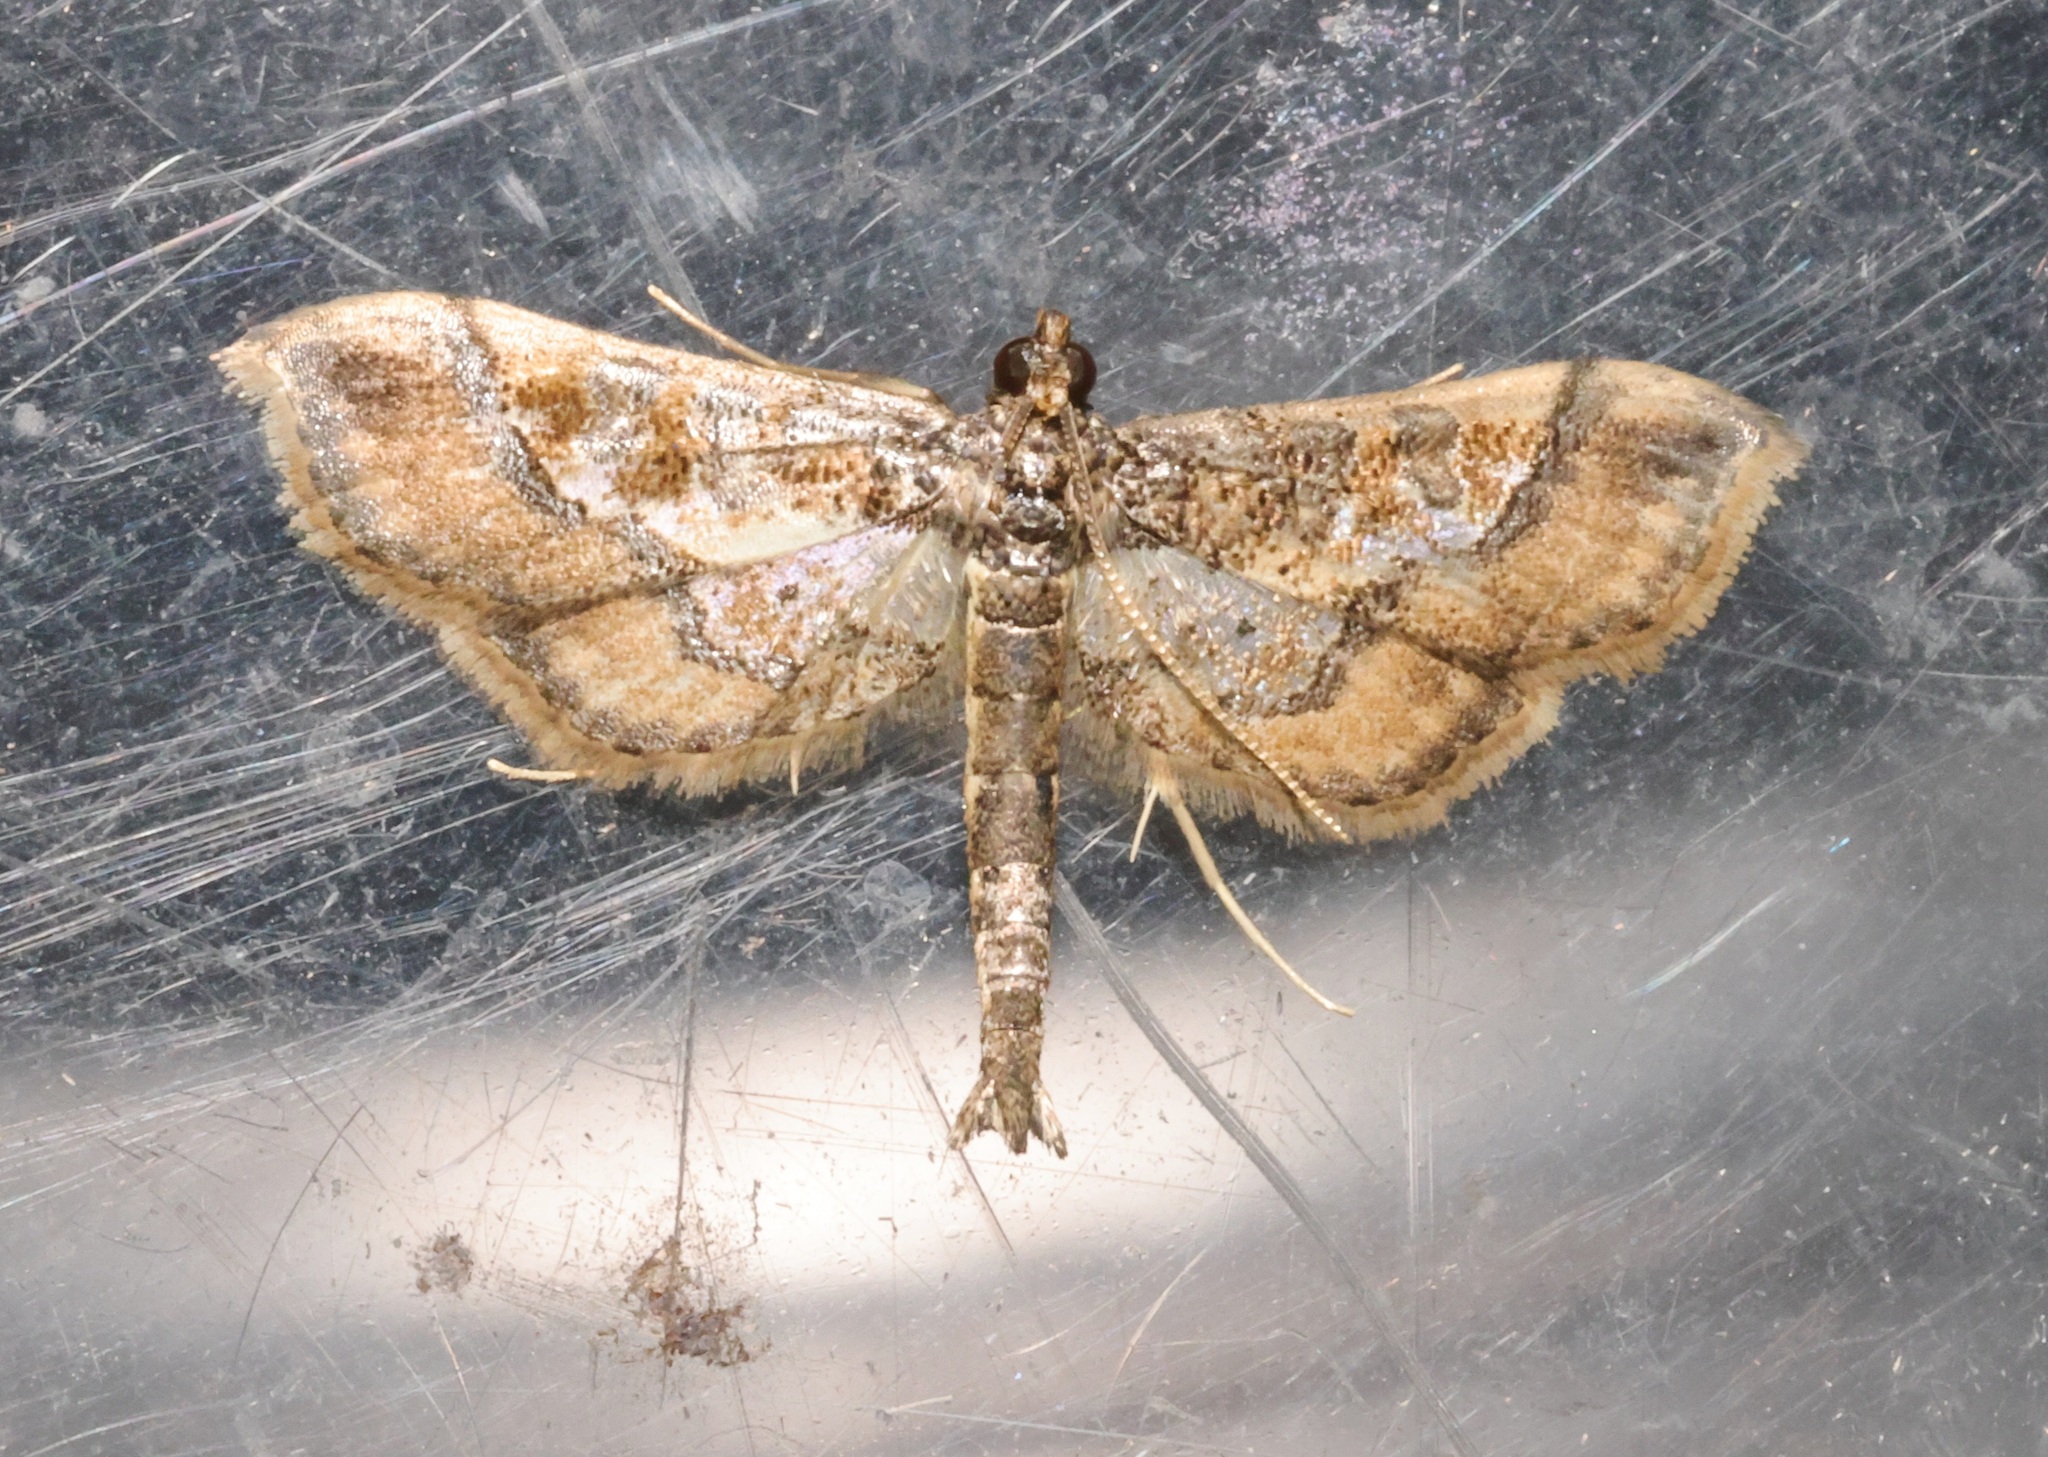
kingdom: Animalia
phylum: Arthropoda
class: Insecta
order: Lepidoptera
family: Crambidae
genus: Hydriris
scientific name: Hydriris ornatalis
